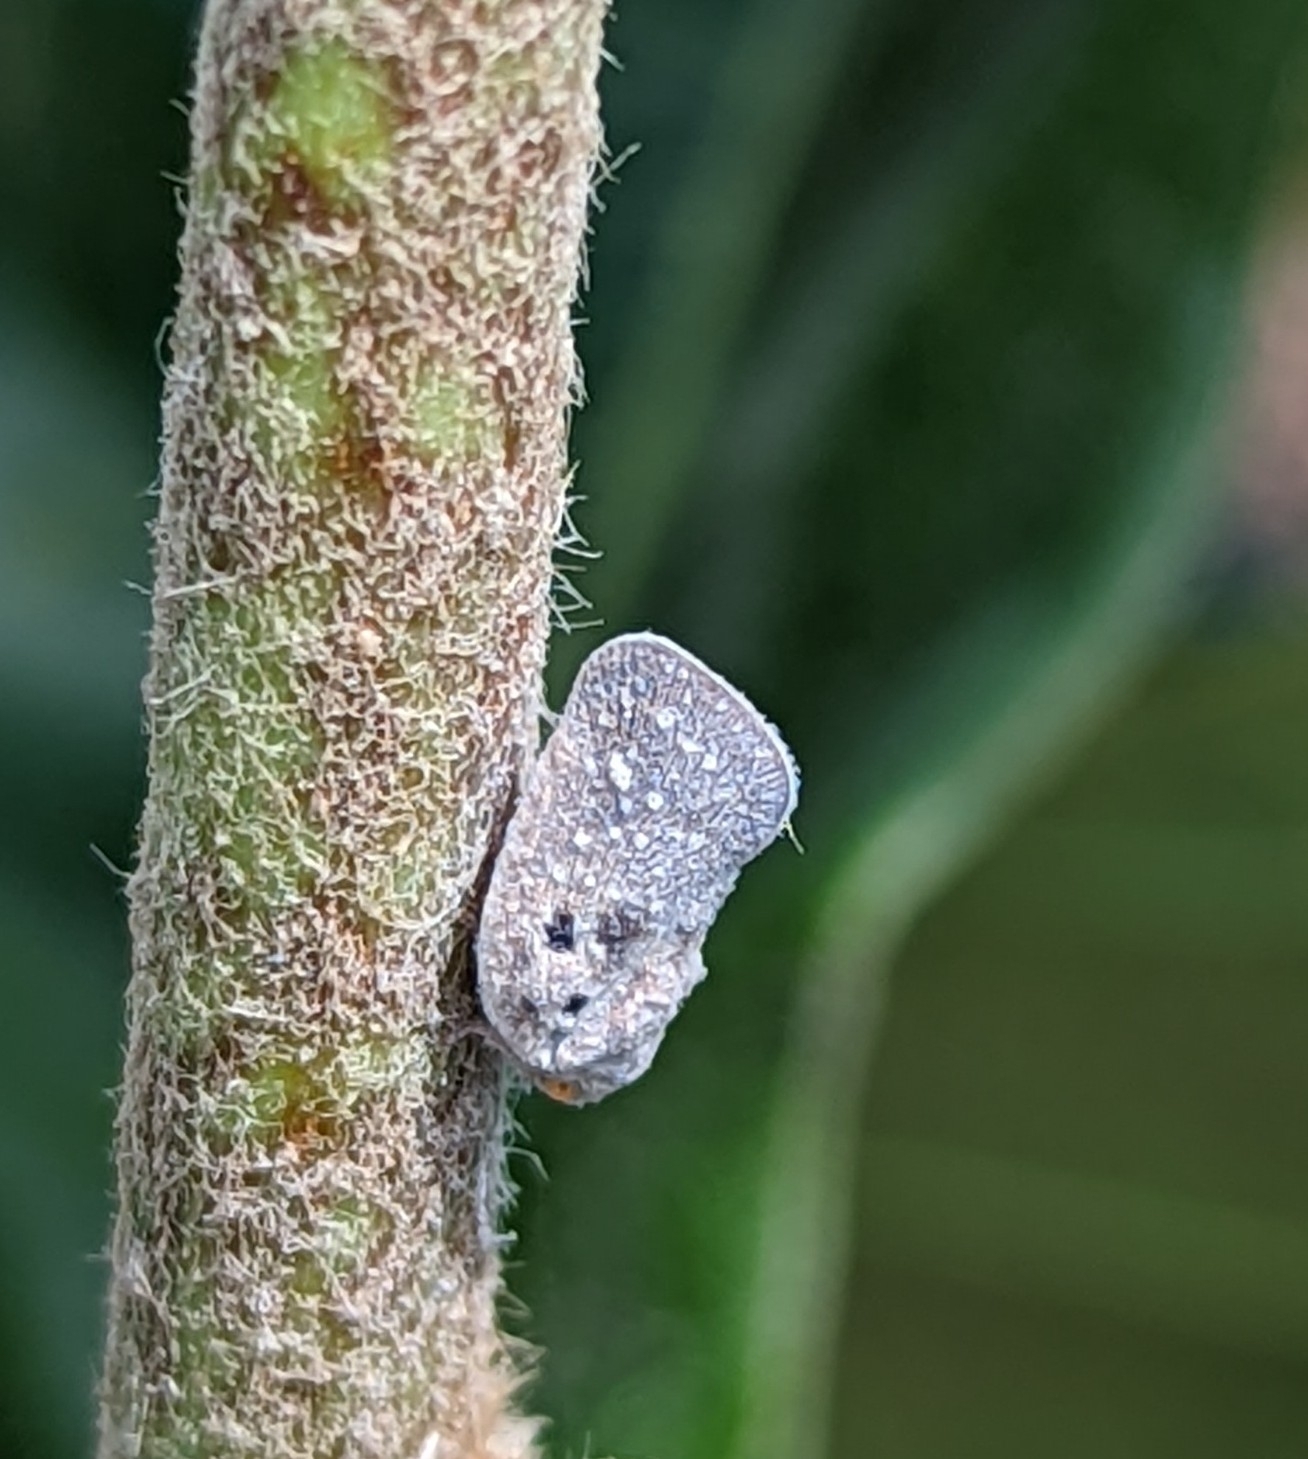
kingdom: Animalia
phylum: Arthropoda
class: Insecta
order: Hemiptera
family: Flatidae
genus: Metcalfa
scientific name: Metcalfa pruinosa
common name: Citrus flatid planthopper
